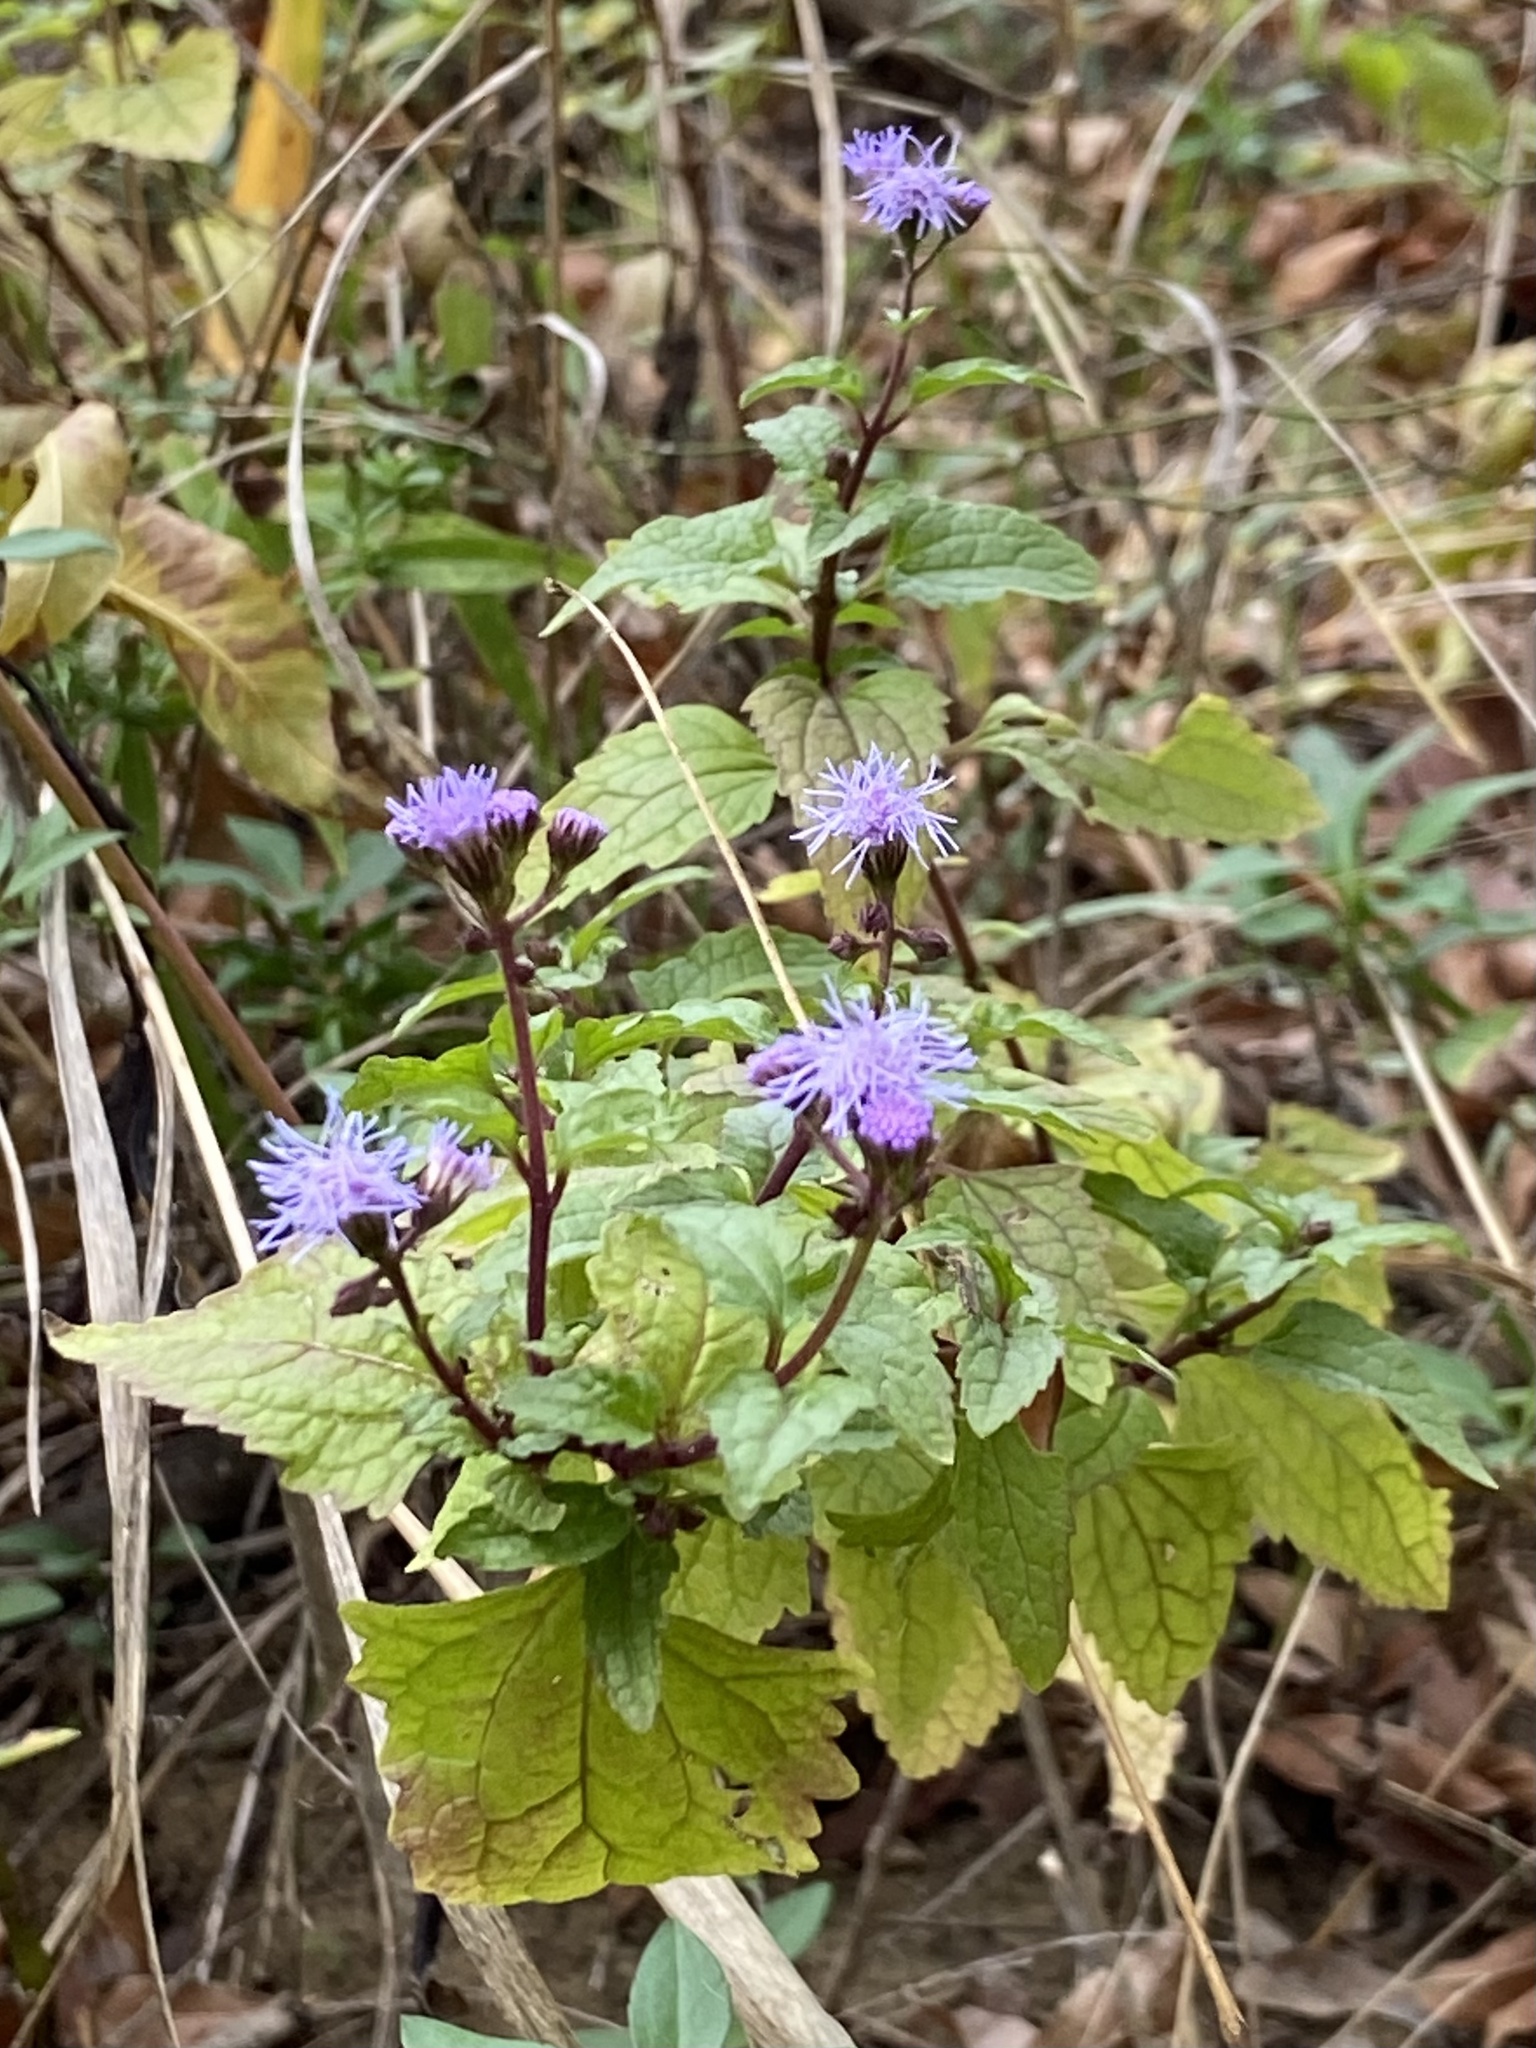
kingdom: Plantae
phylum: Tracheophyta
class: Magnoliopsida
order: Asterales
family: Asteraceae
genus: Conoclinium
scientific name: Conoclinium coelestinum
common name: Blue mistflower
